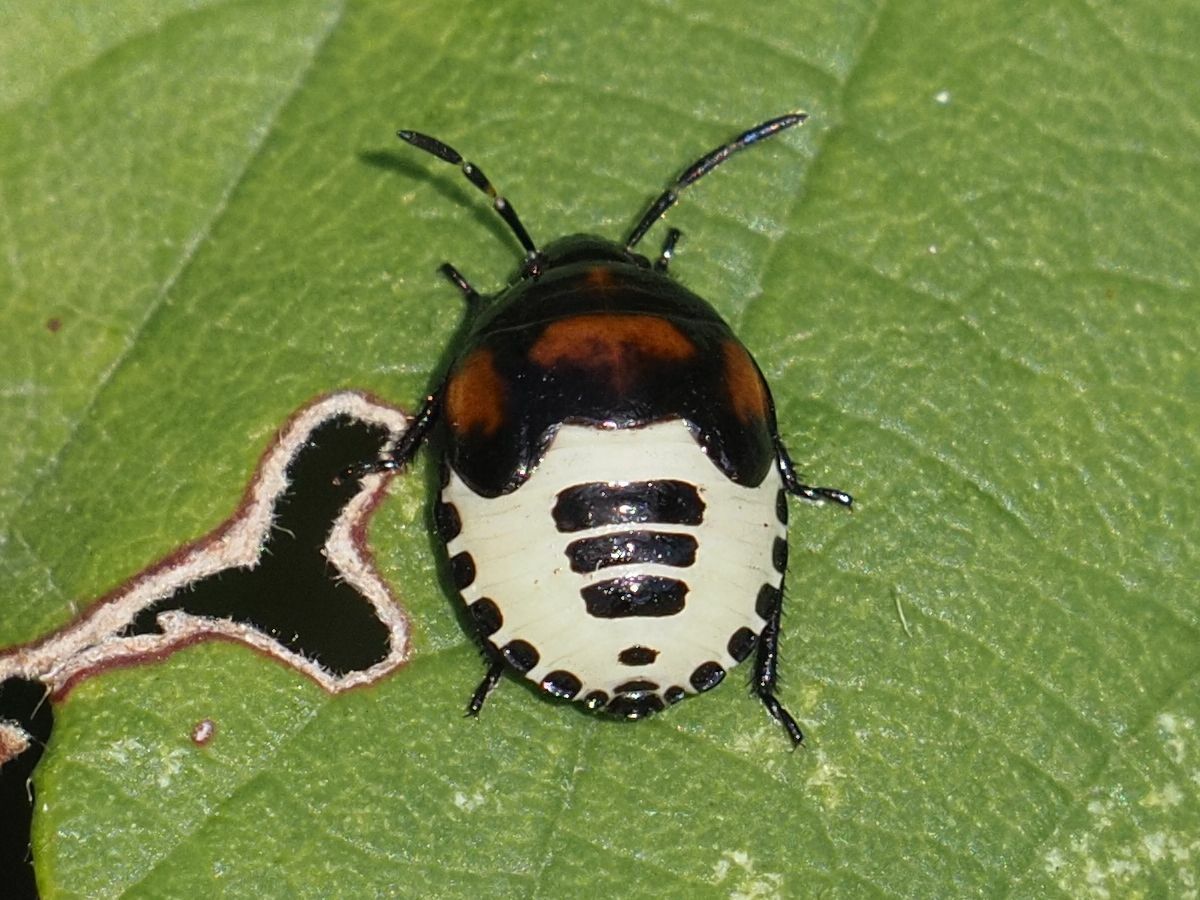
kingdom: Animalia
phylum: Arthropoda
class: Insecta
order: Hemiptera
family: Cydnidae
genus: Tritomegas
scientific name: Tritomegas sexmaculatus
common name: Rambur's pied shieldbug
